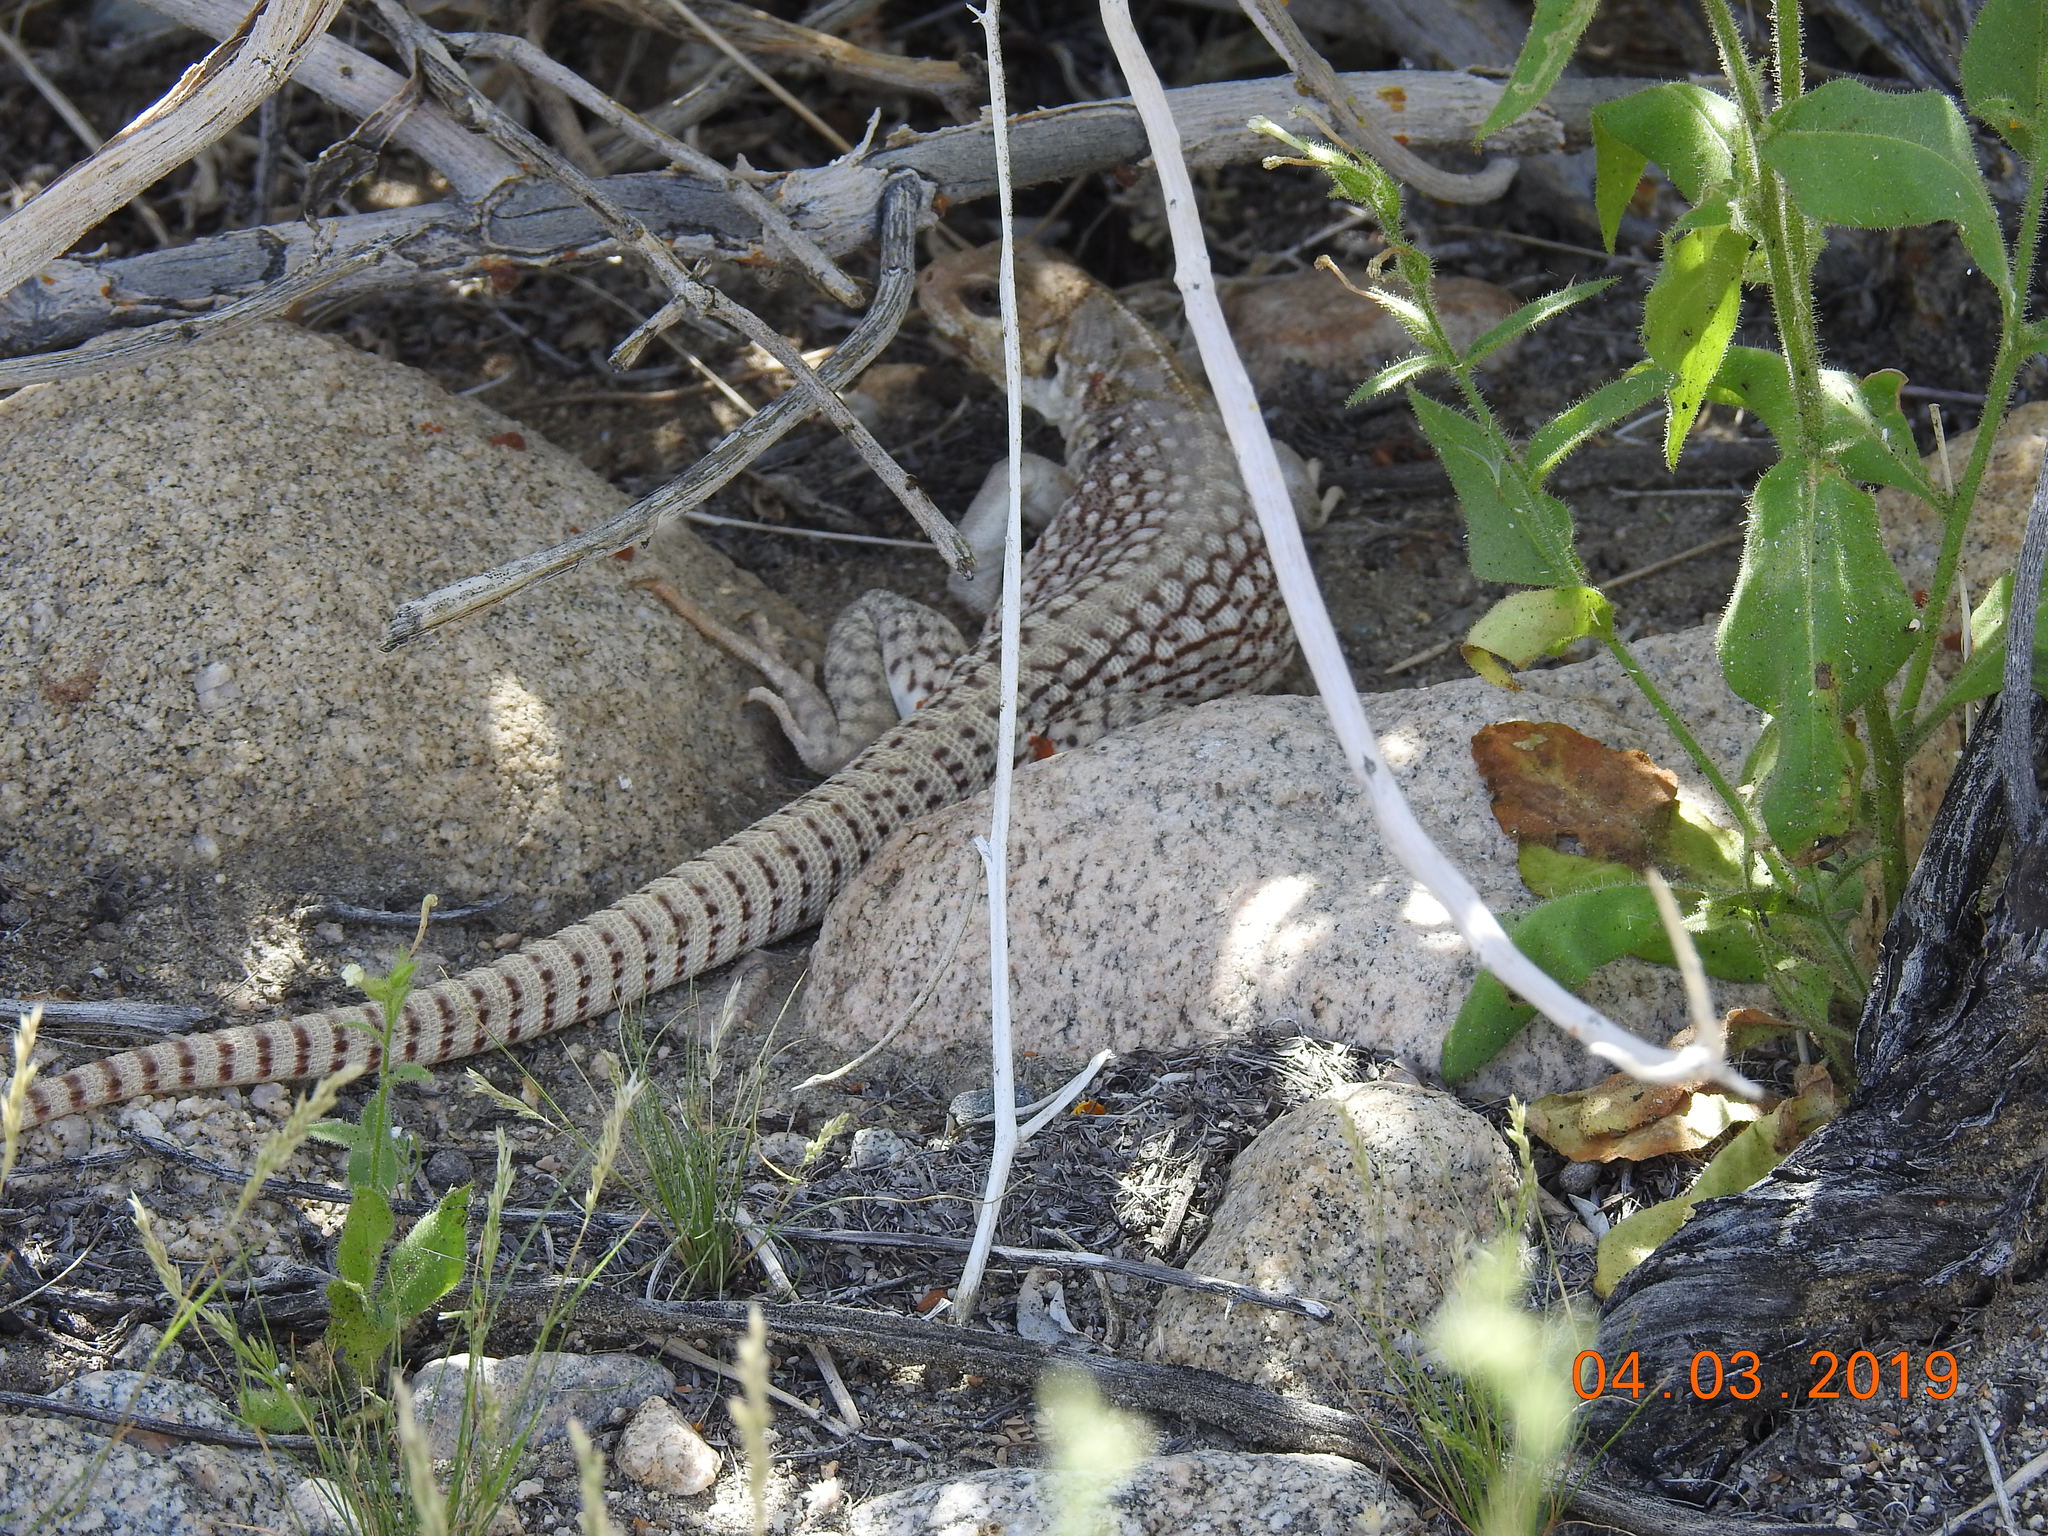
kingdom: Animalia
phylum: Chordata
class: Squamata
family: Iguanidae
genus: Dipsosaurus
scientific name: Dipsosaurus dorsalis
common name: Desert iguana
